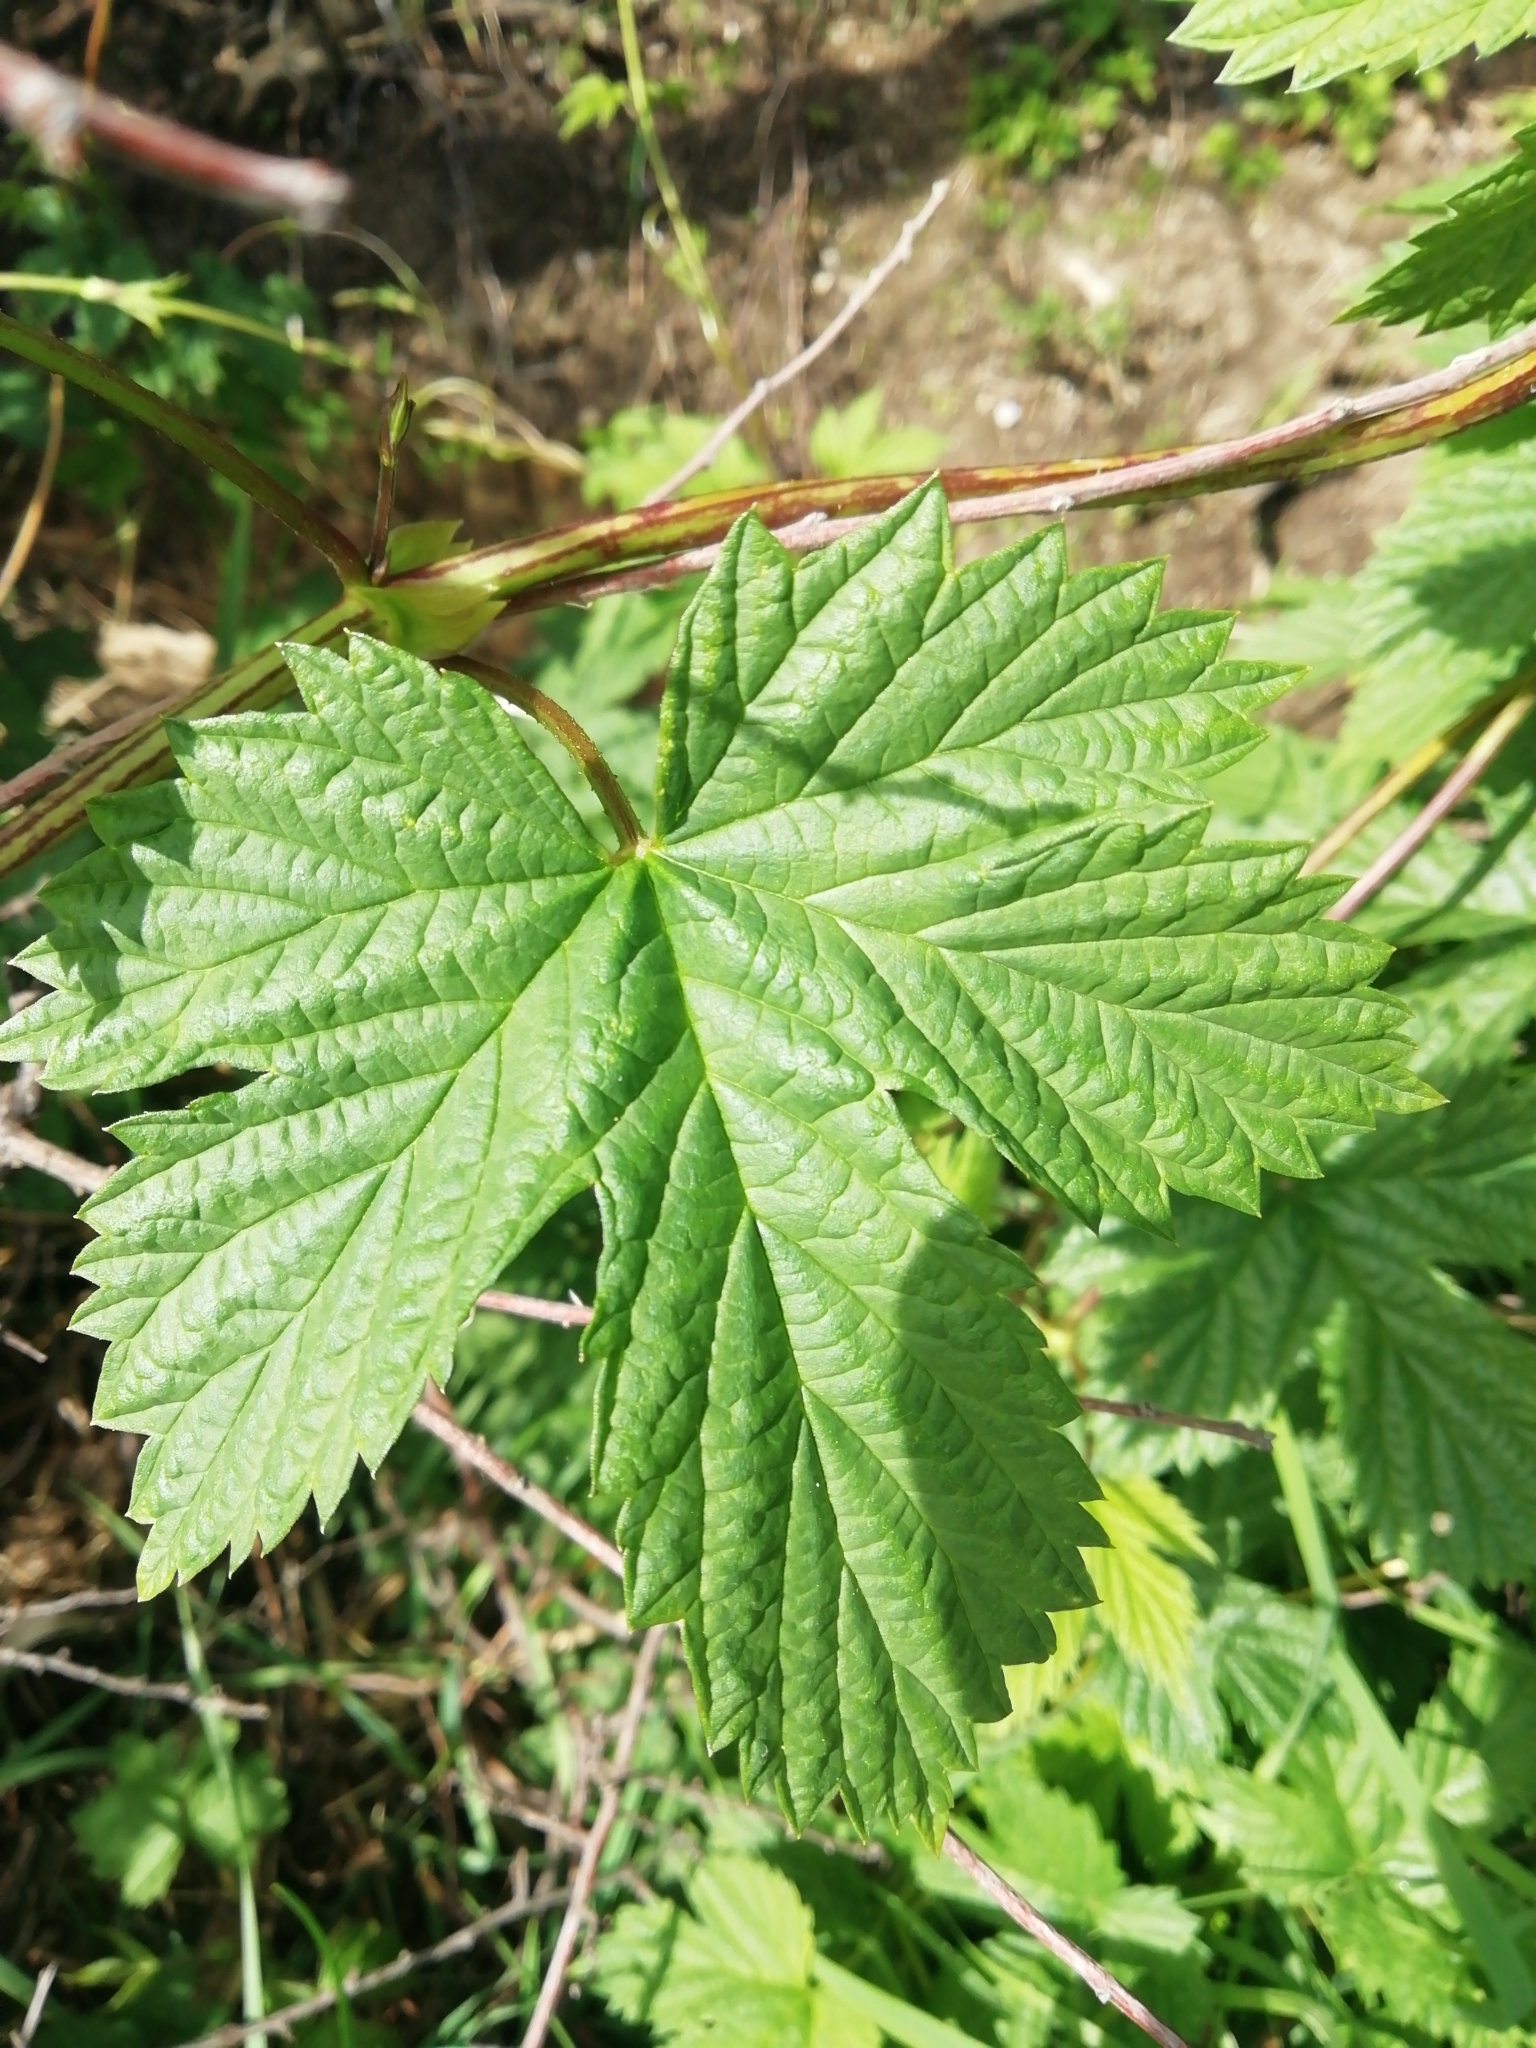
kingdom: Plantae
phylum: Tracheophyta
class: Magnoliopsida
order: Rosales
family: Cannabaceae
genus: Humulus
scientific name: Humulus lupulus
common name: Hop
